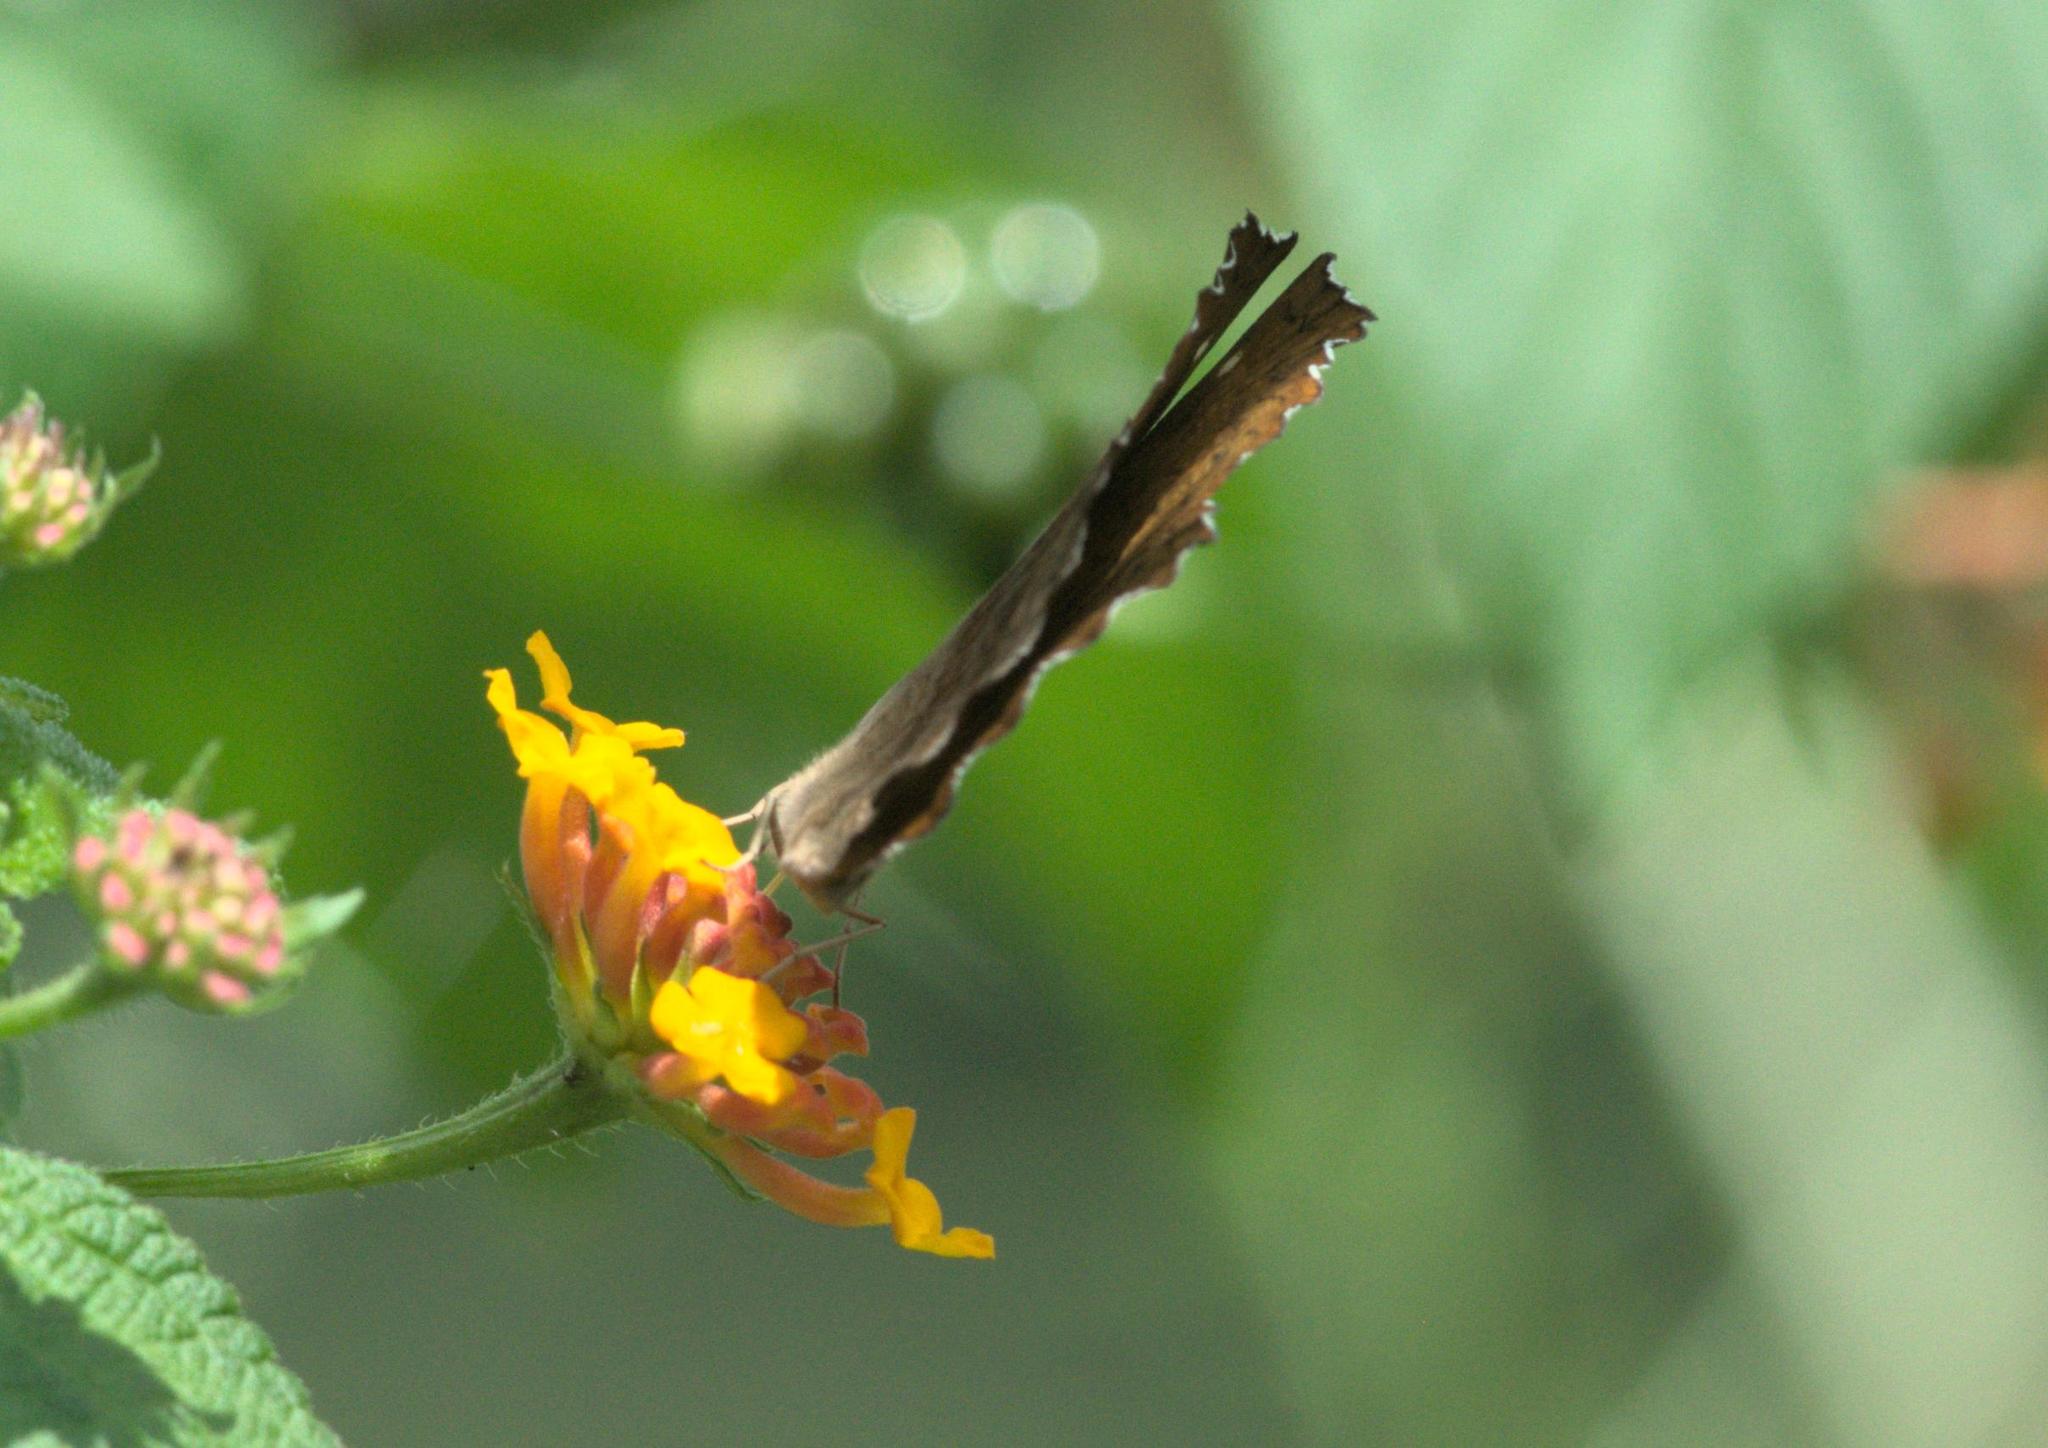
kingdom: Animalia
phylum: Arthropoda
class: Insecta
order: Lepidoptera
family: Nymphalidae
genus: Ariadne
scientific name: Ariadne merione
